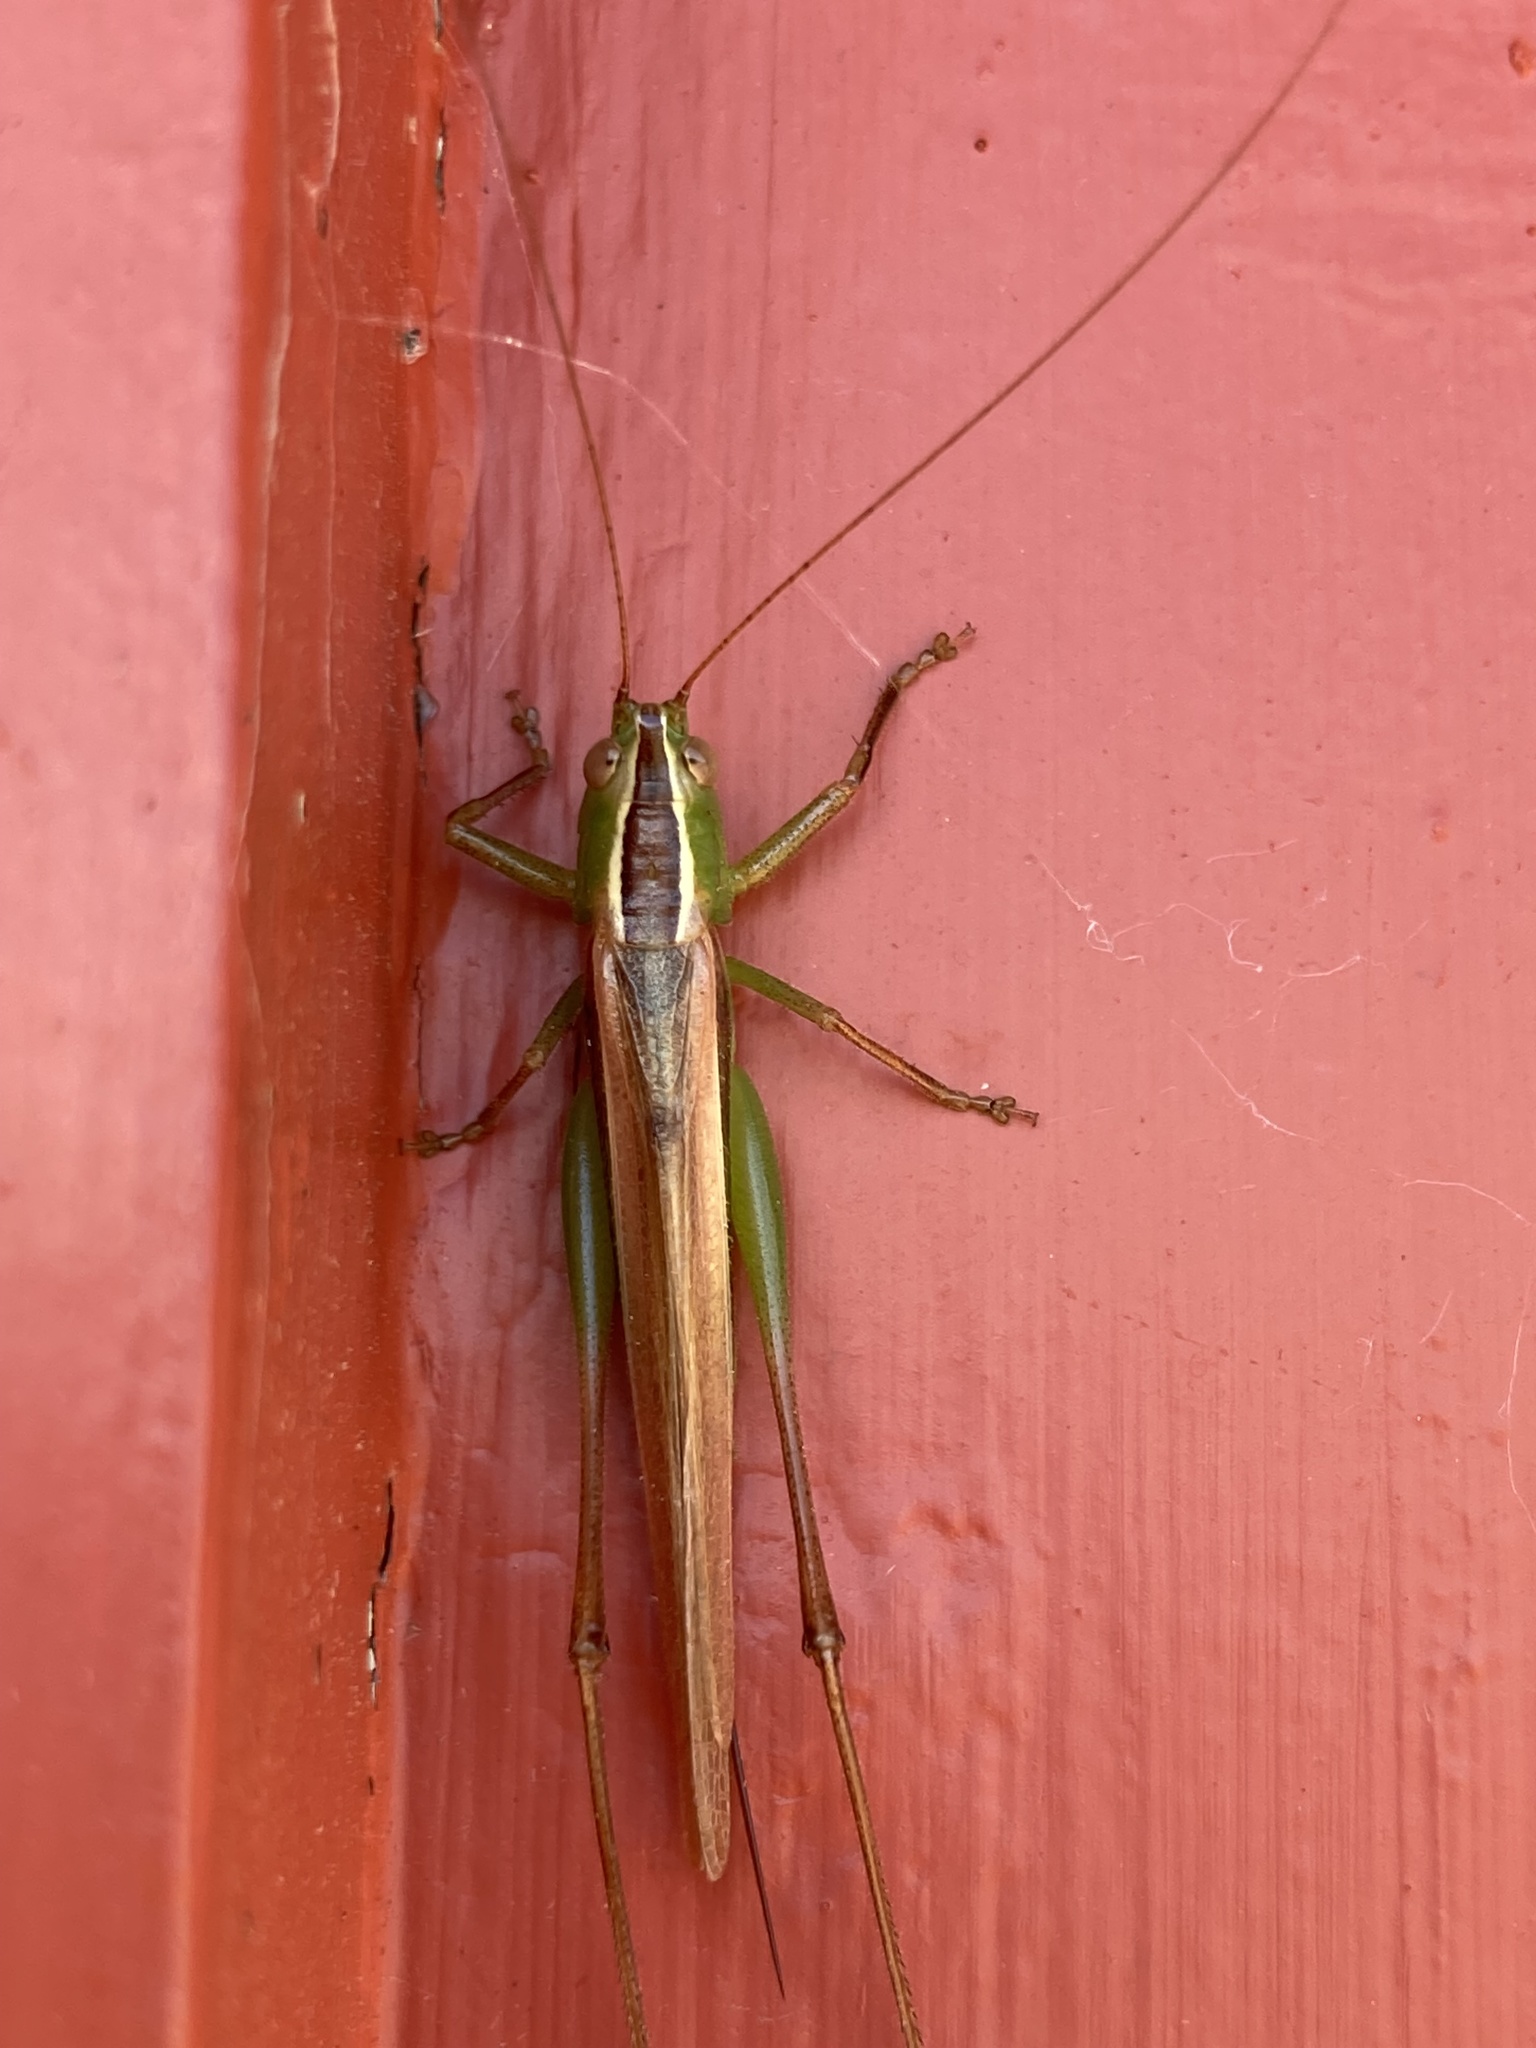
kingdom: Animalia
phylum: Arthropoda
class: Insecta
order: Orthoptera
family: Tettigoniidae
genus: Conocephalus
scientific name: Conocephalus albescens
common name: Whitish meadow katydid
